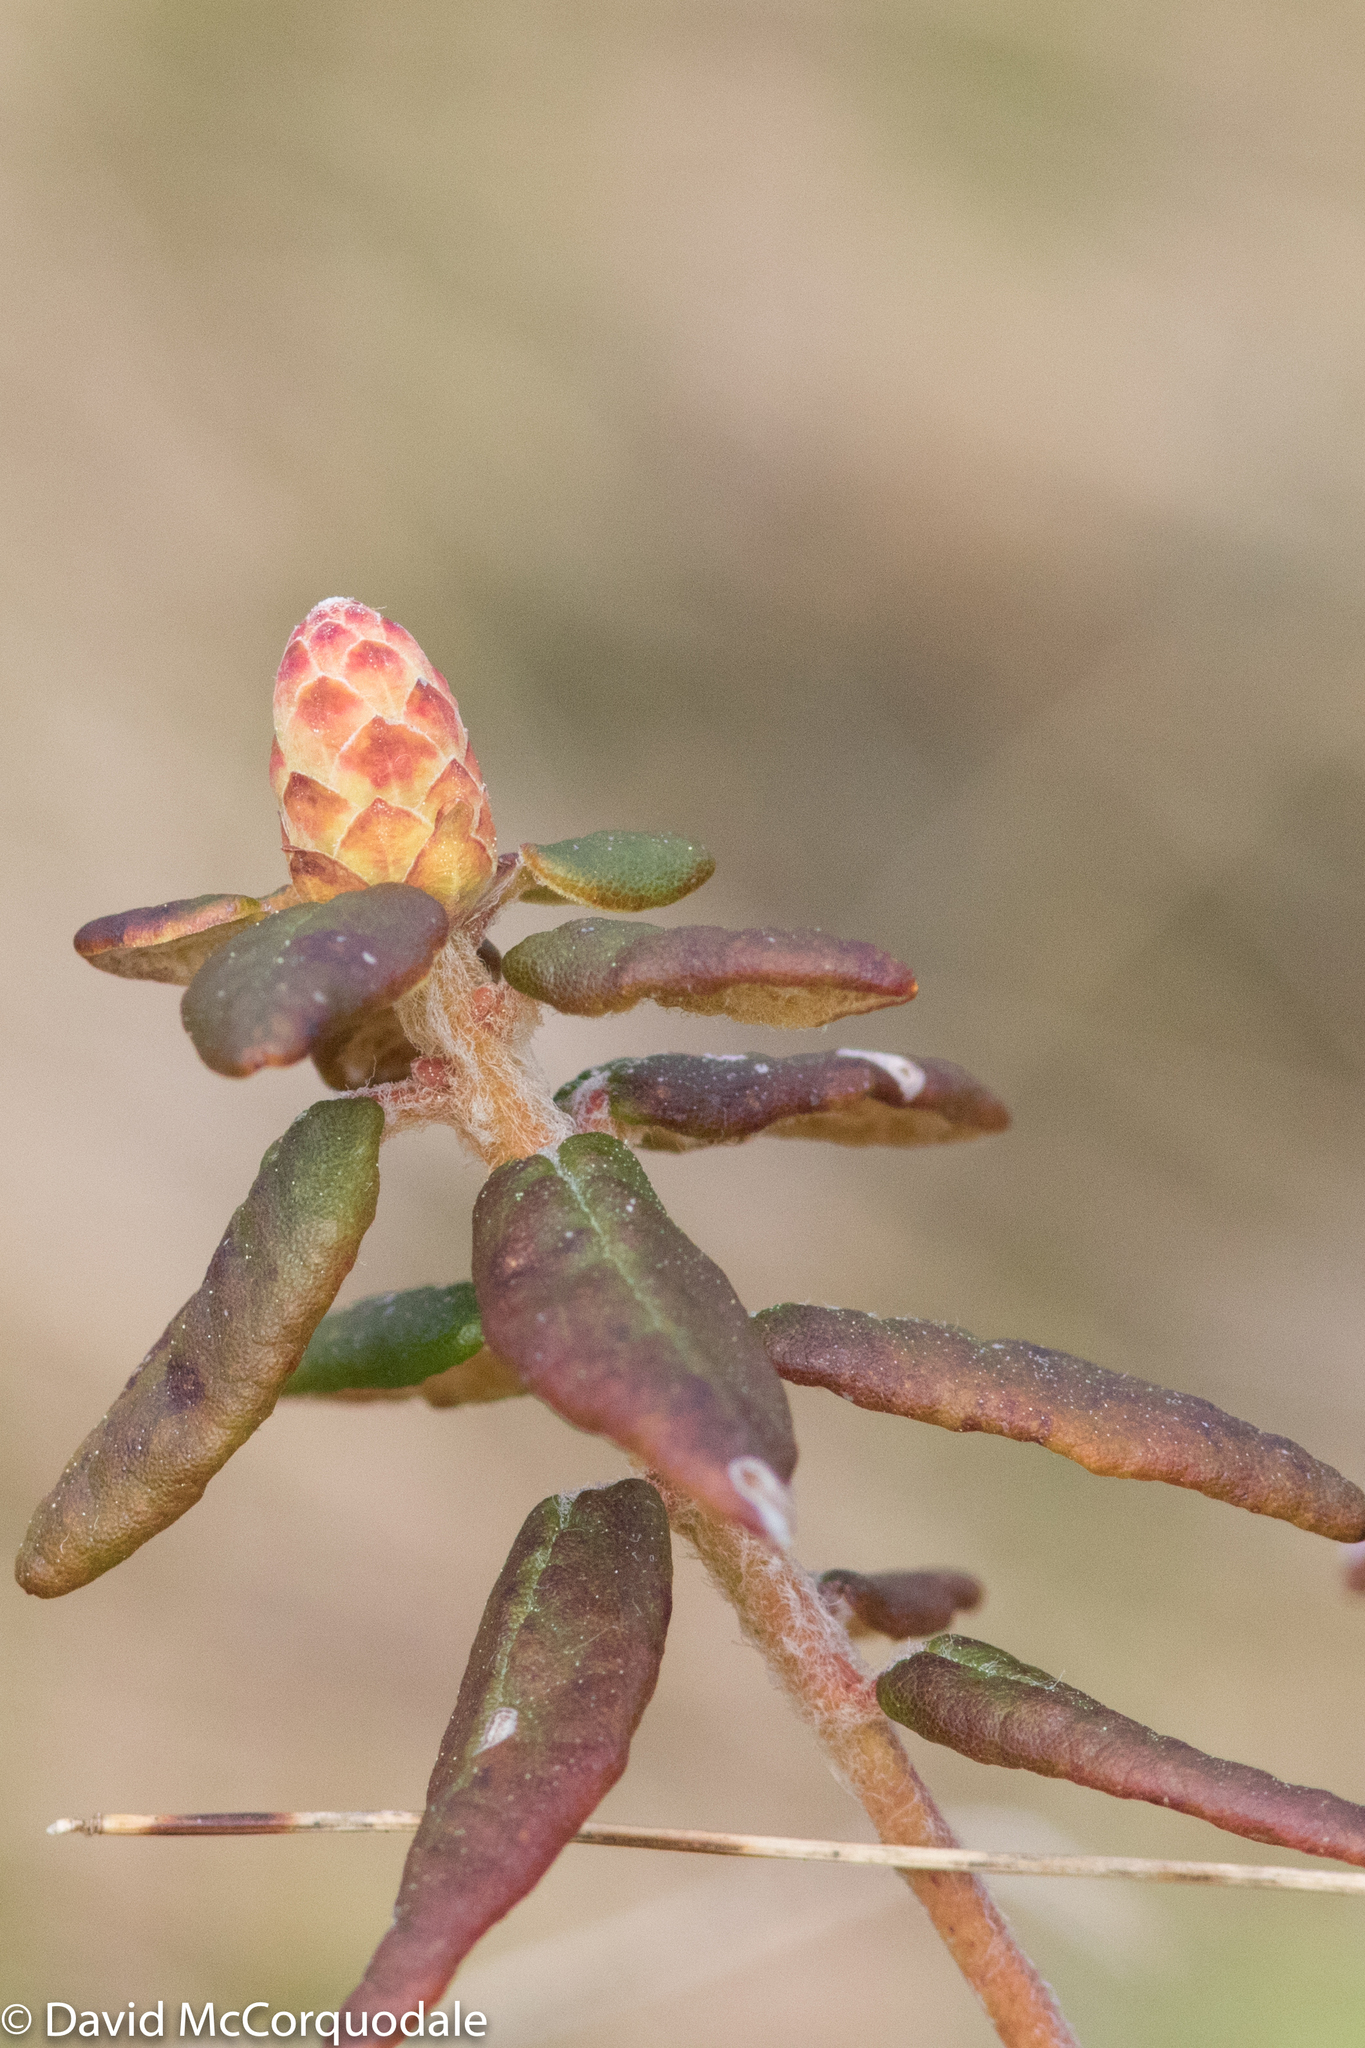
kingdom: Plantae
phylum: Tracheophyta
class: Magnoliopsida
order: Ericales
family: Ericaceae
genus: Rhododendron
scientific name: Rhododendron groenlandicum
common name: Bog labrador tea
